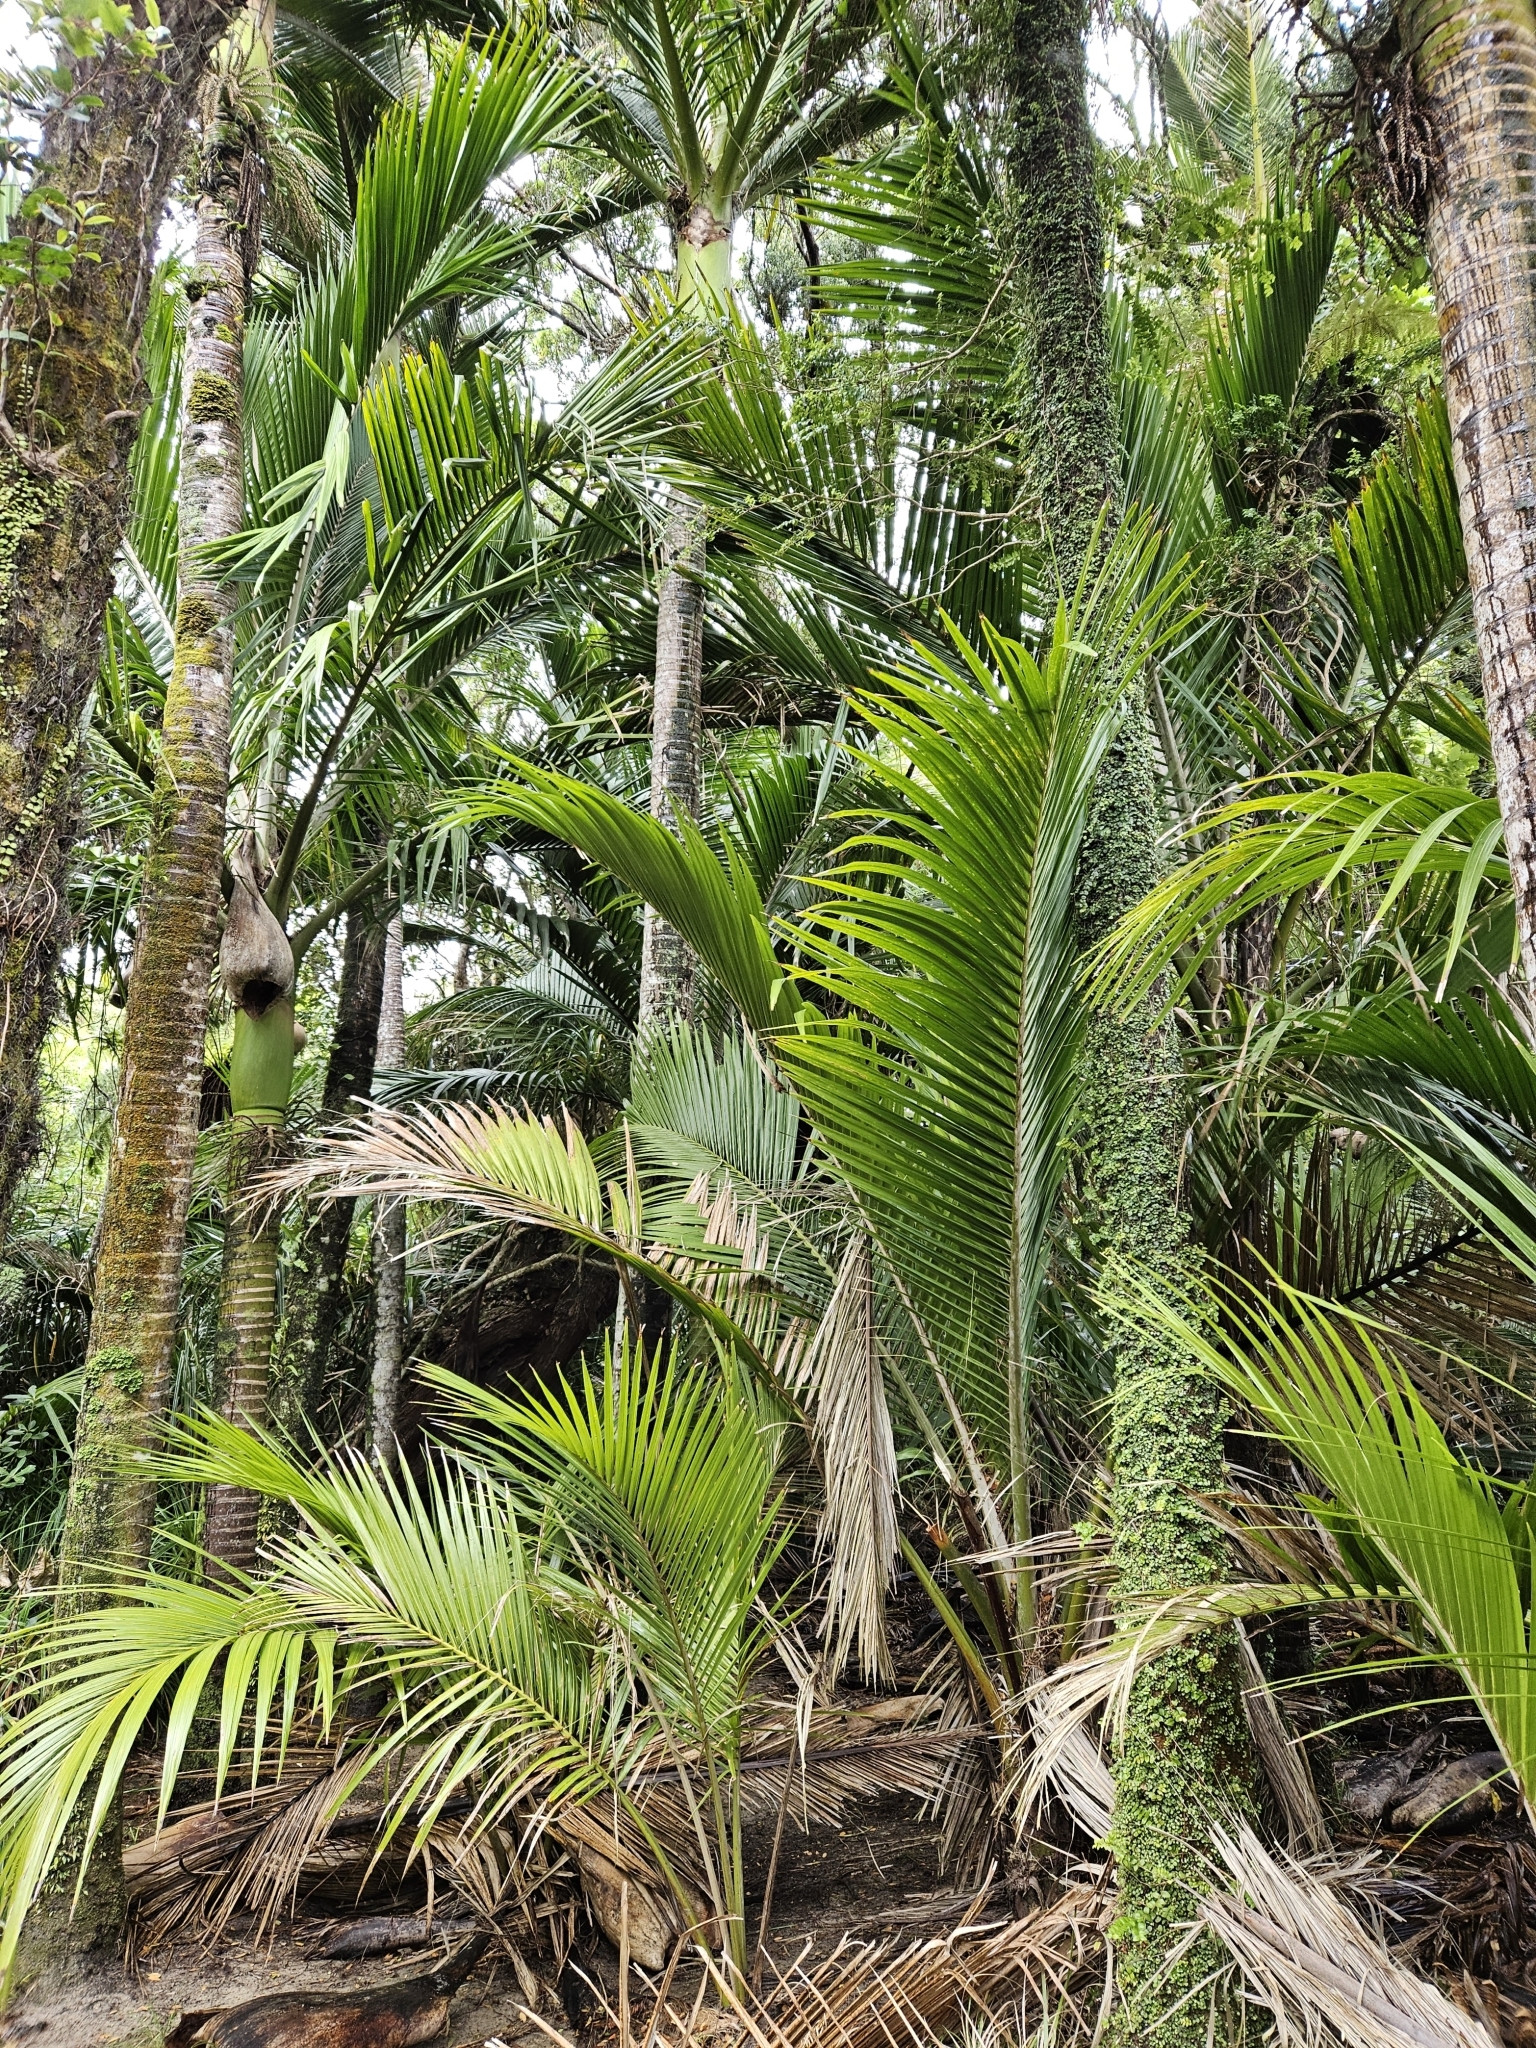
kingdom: Plantae
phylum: Tracheophyta
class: Liliopsida
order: Arecales
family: Arecaceae
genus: Rhopalostylis
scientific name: Rhopalostylis sapida
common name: Feather-duster palm
